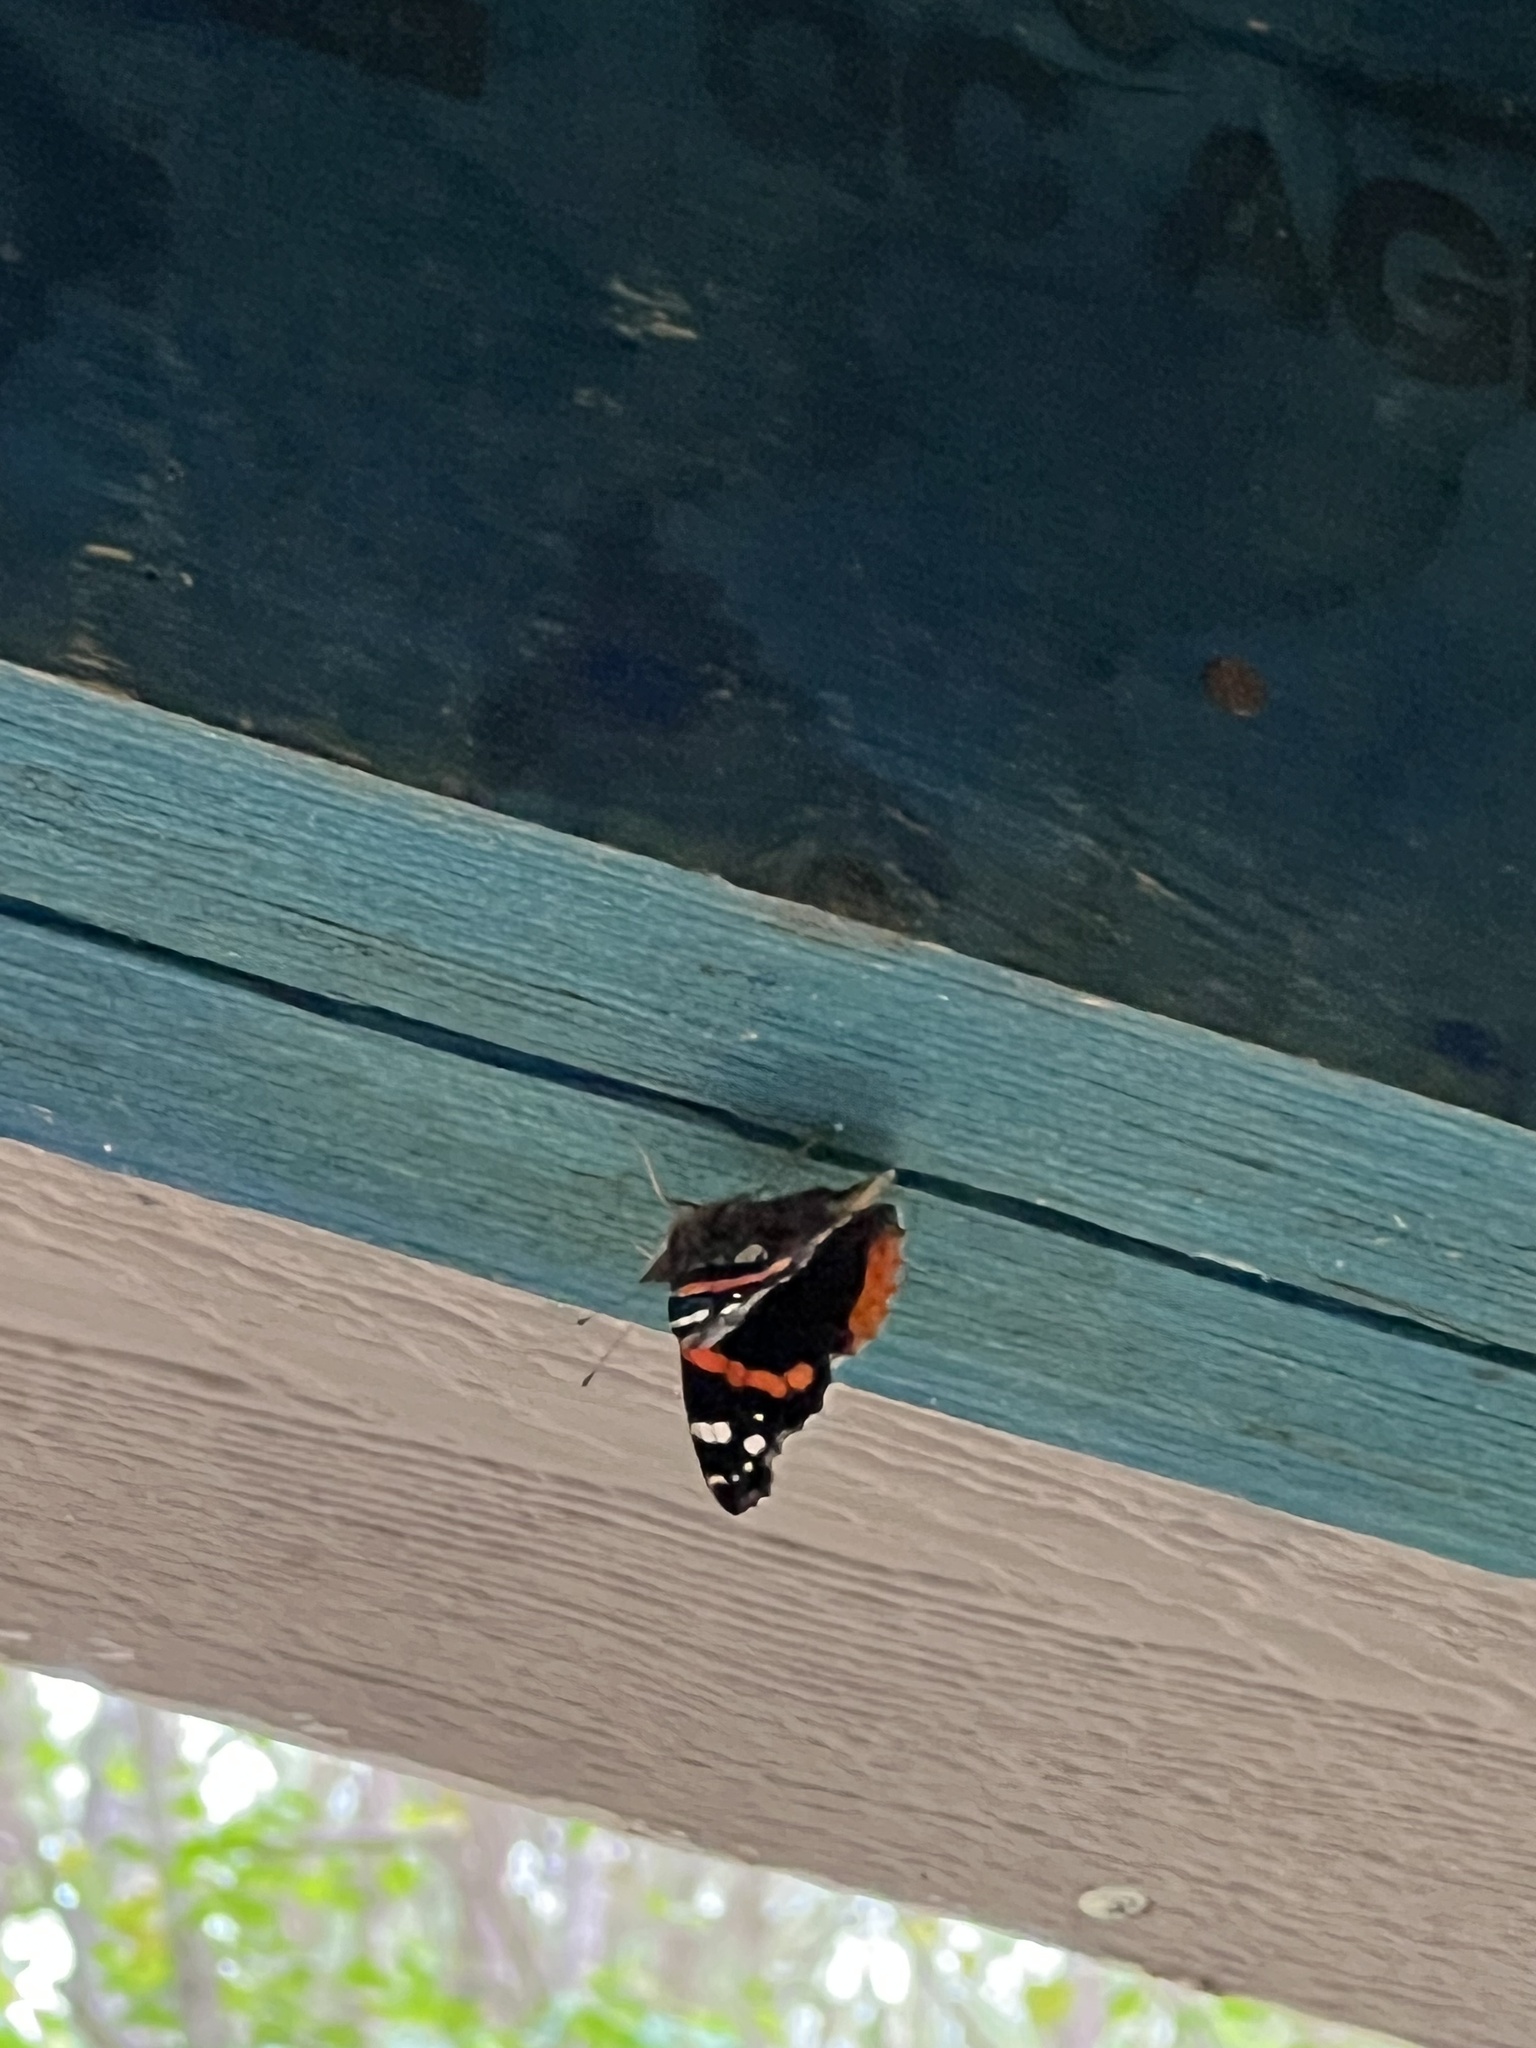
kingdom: Animalia
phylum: Arthropoda
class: Insecta
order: Lepidoptera
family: Nymphalidae
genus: Vanessa
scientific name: Vanessa atalanta
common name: Red admiral
